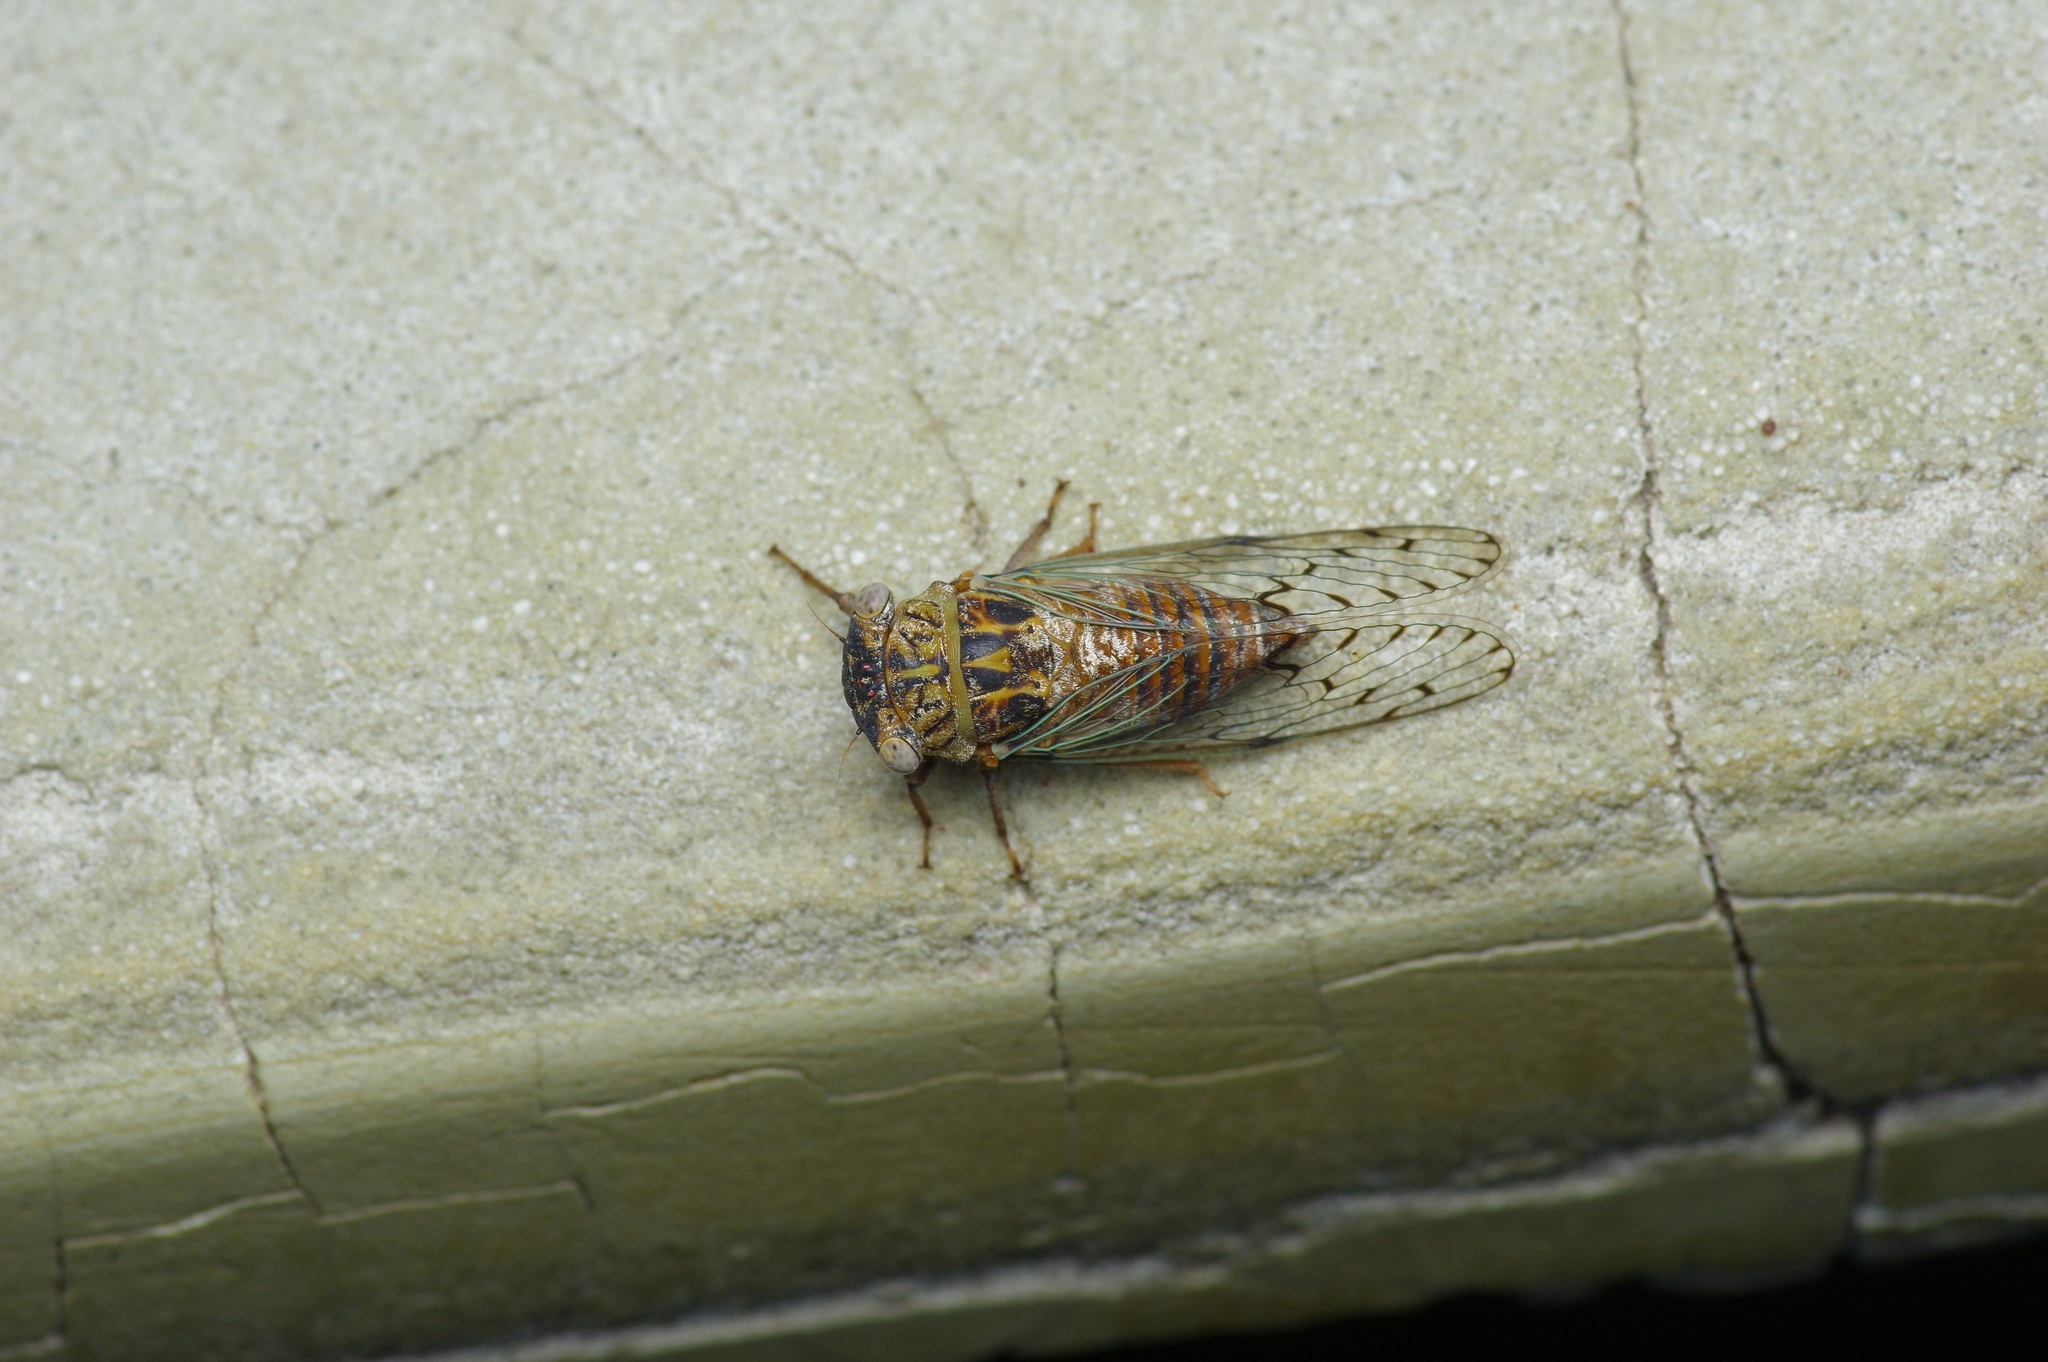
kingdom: Animalia
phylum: Arthropoda
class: Insecta
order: Hemiptera
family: Cicadidae
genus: Pacarina
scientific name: Pacarina puella
